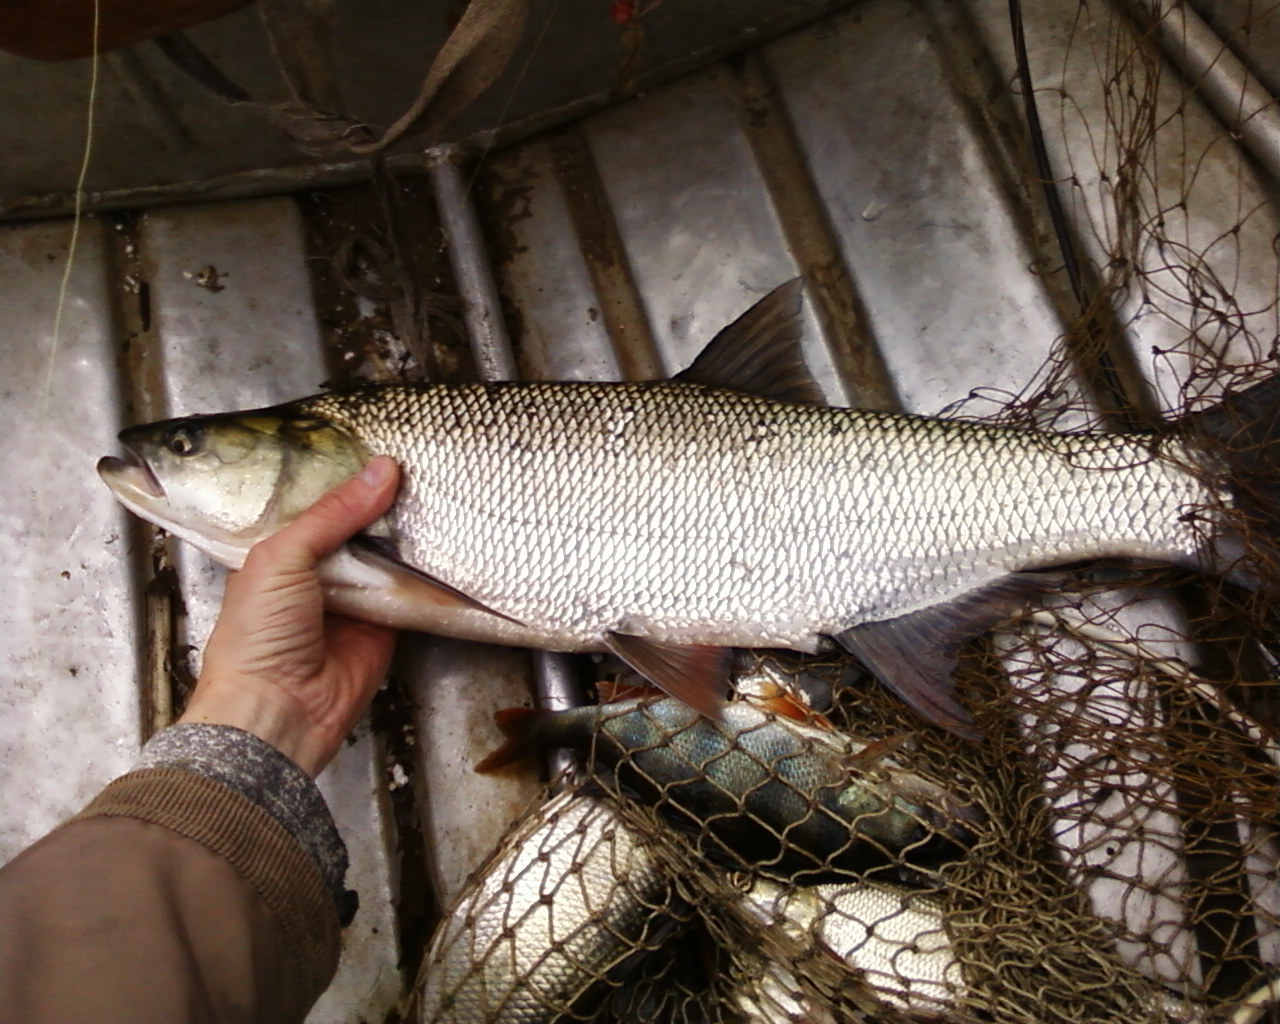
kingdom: Animalia
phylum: Chordata
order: Cypriniformes
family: Cyprinidae
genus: Leuciscus
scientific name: Leuciscus aspius
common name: Asp
